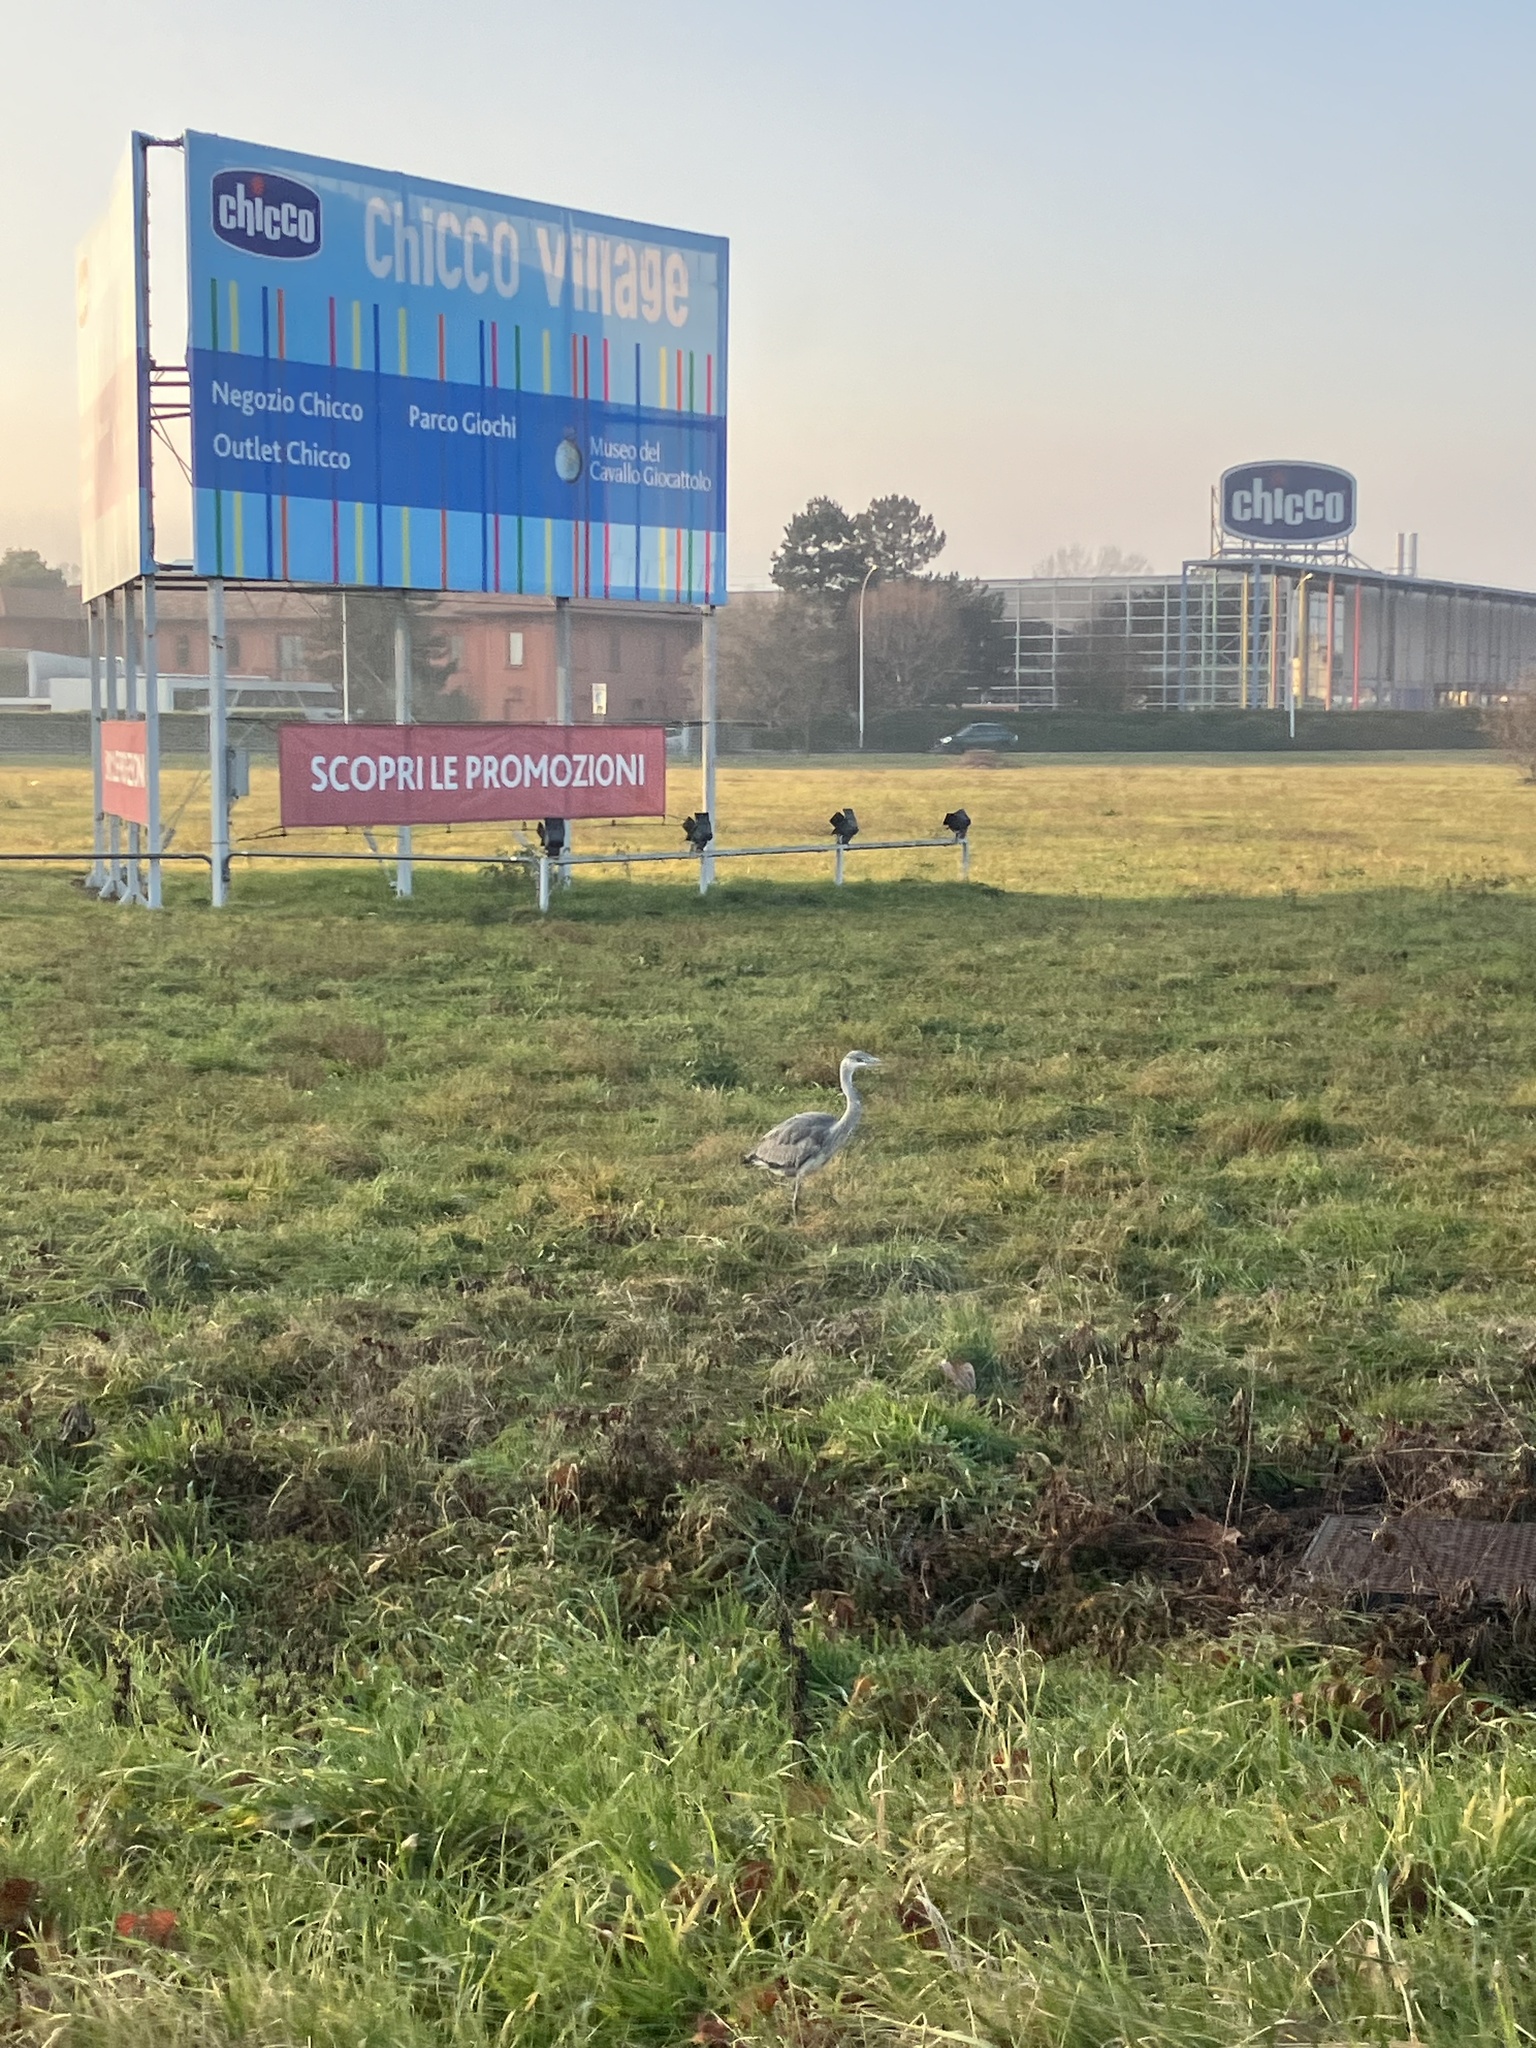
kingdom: Animalia
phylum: Chordata
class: Aves
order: Pelecaniformes
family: Ardeidae
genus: Ardea
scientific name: Ardea cinerea
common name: Grey heron
